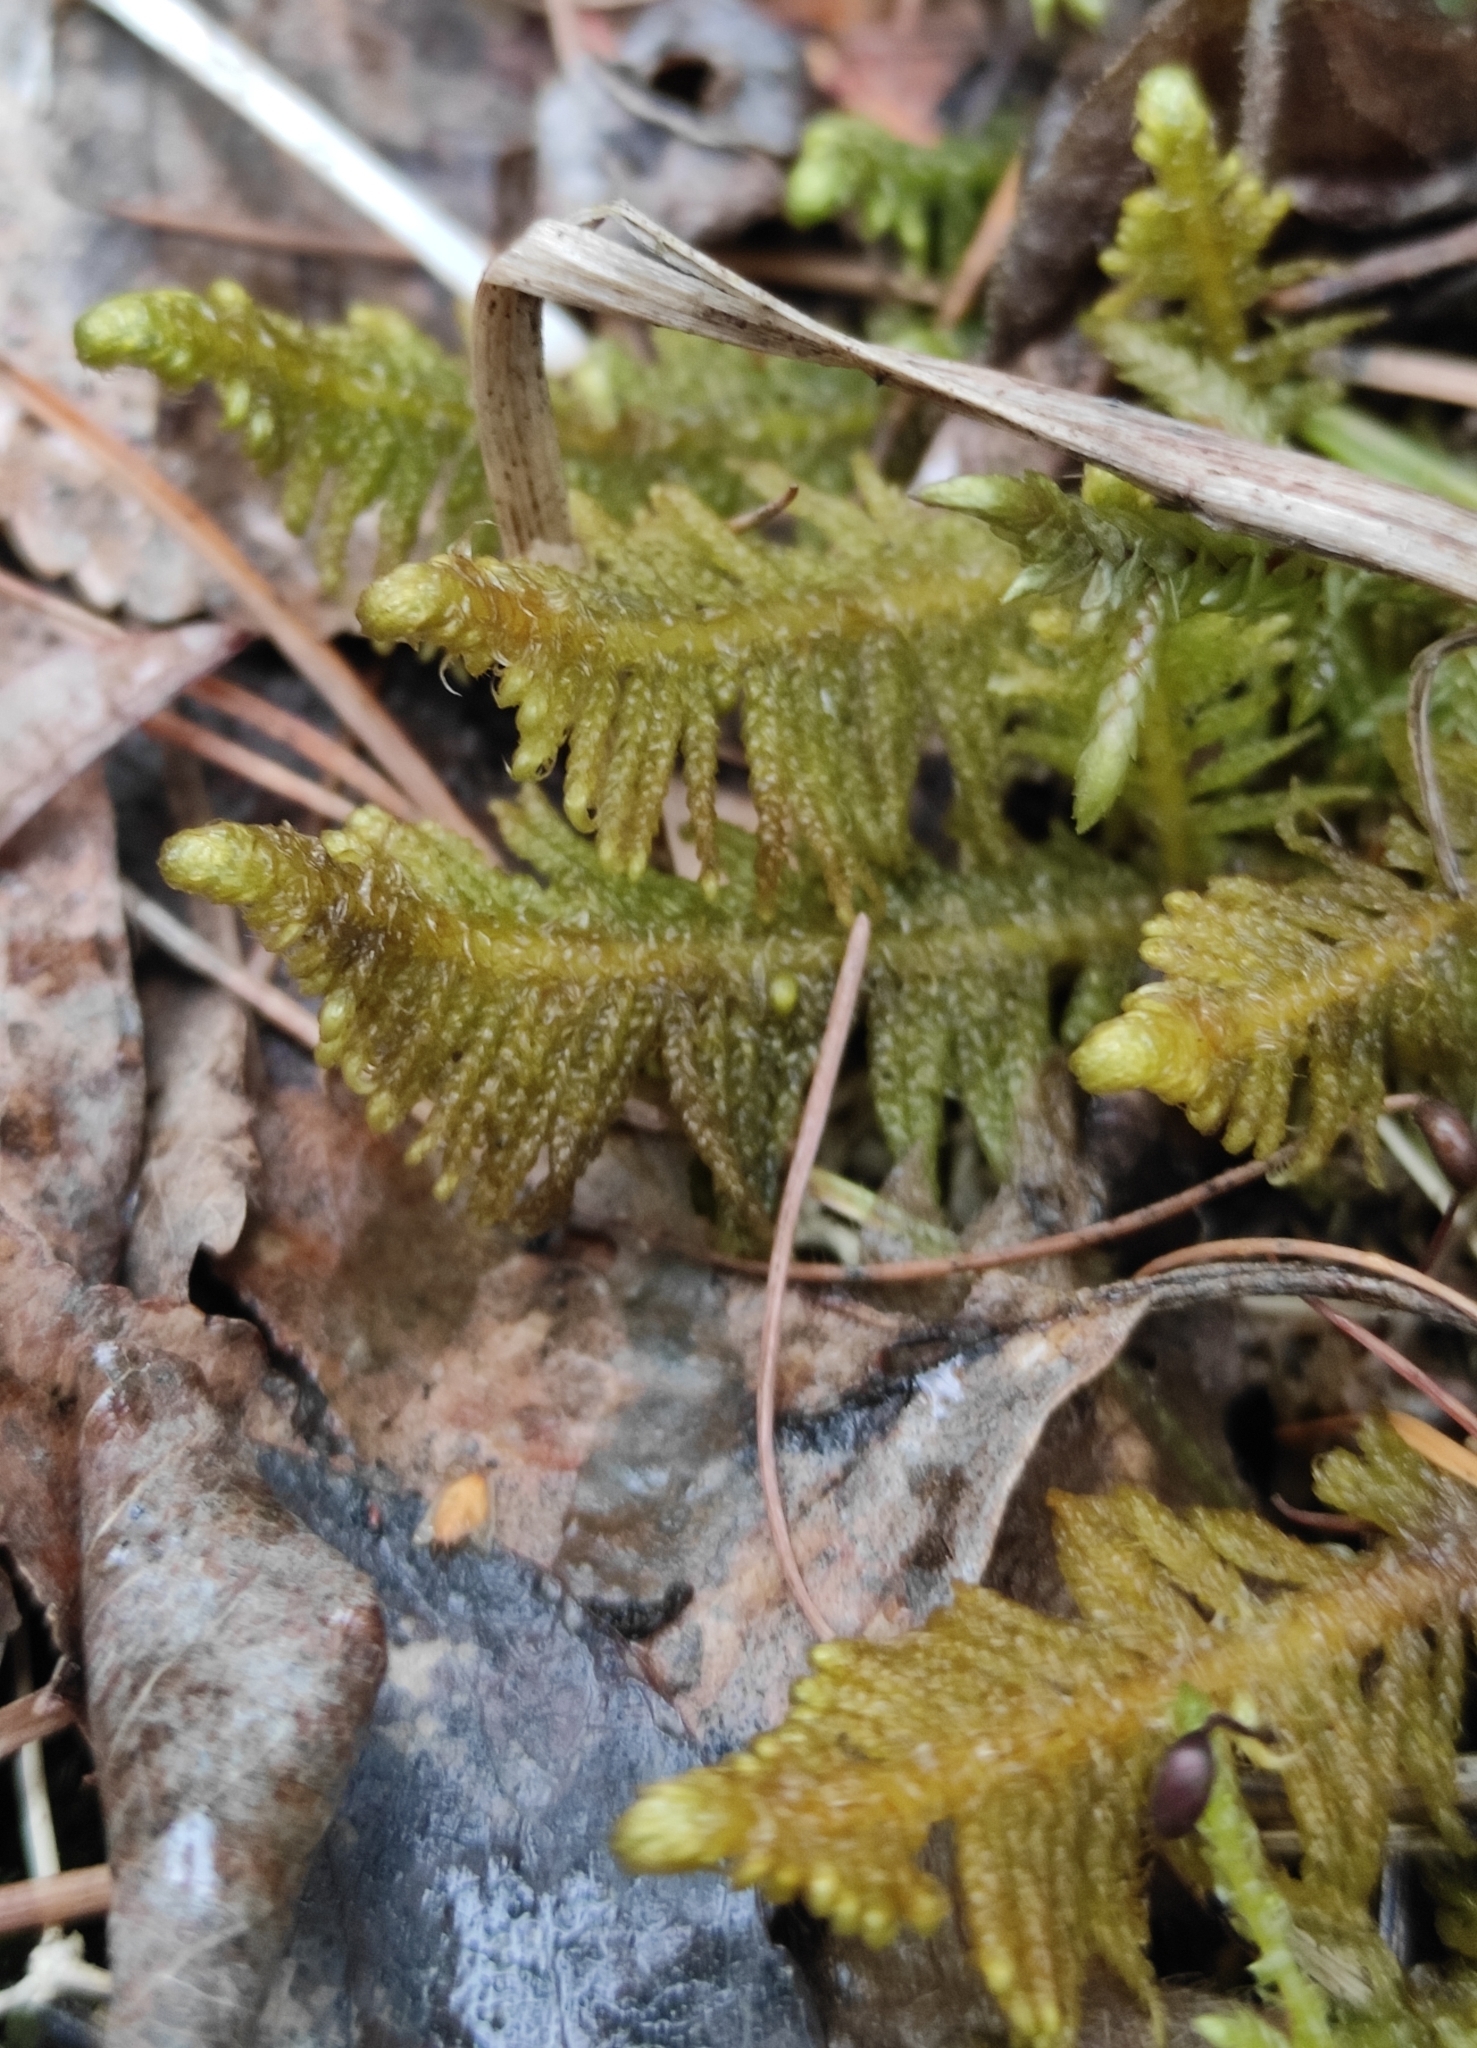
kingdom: Plantae
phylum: Bryophyta
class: Bryopsida
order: Hypnales
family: Pylaisiaceae
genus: Ptilium
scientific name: Ptilium crista-castrensis
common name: Knight's plume moss
